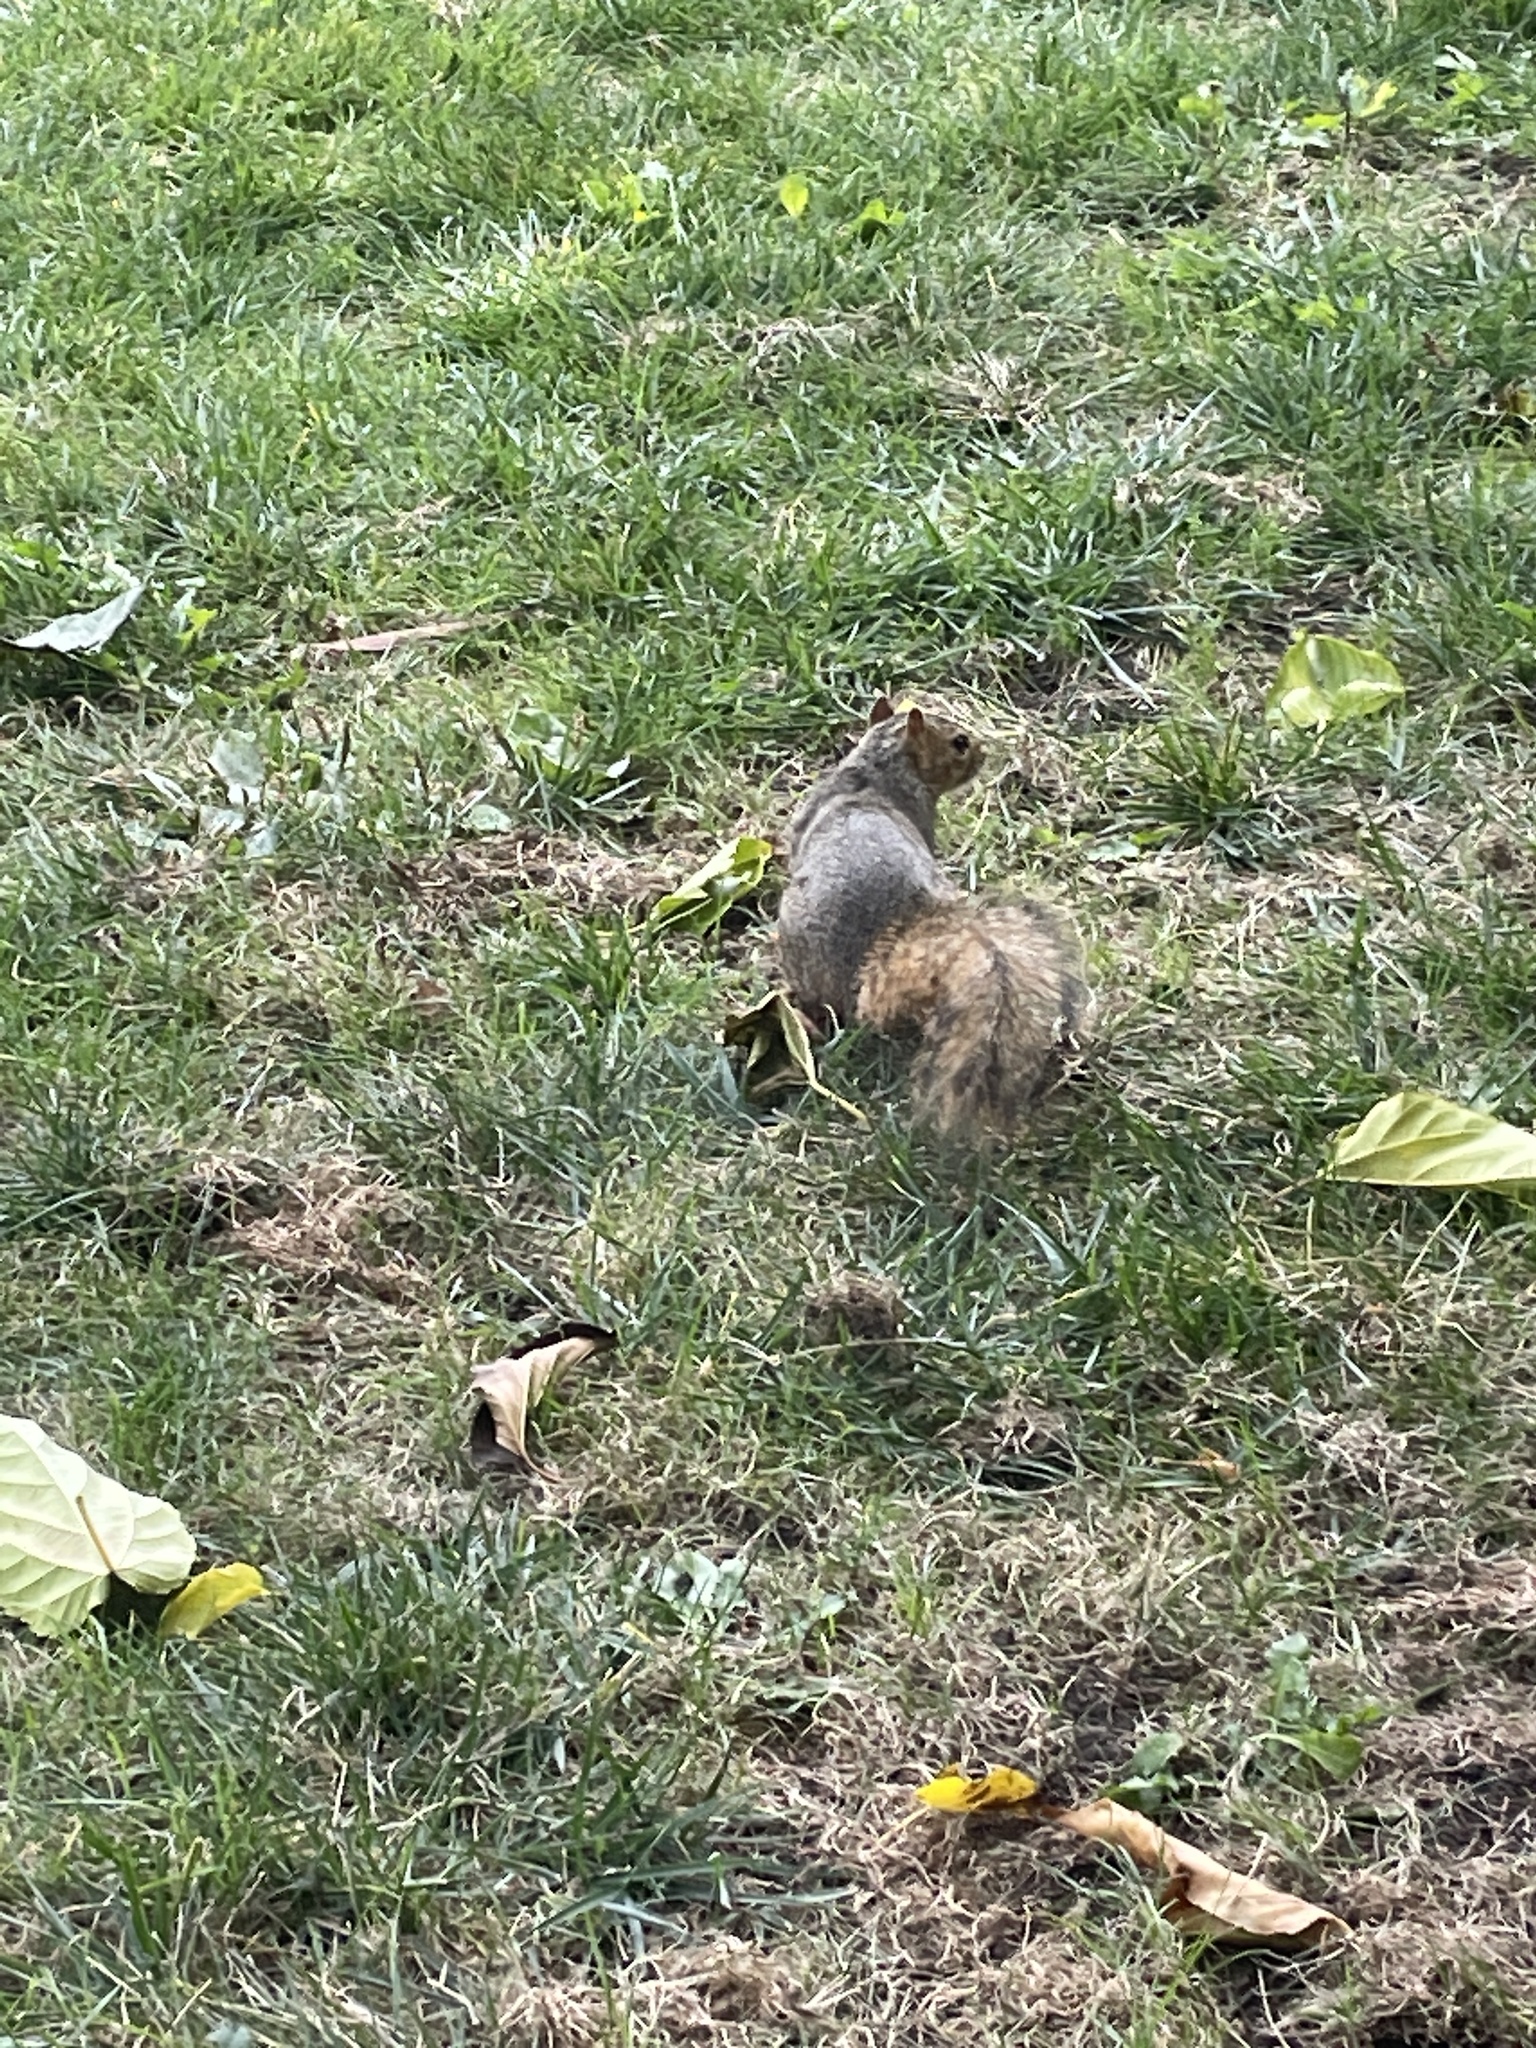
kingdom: Animalia
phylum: Chordata
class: Mammalia
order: Rodentia
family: Sciuridae
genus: Sciurus
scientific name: Sciurus niger
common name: Fox squirrel
